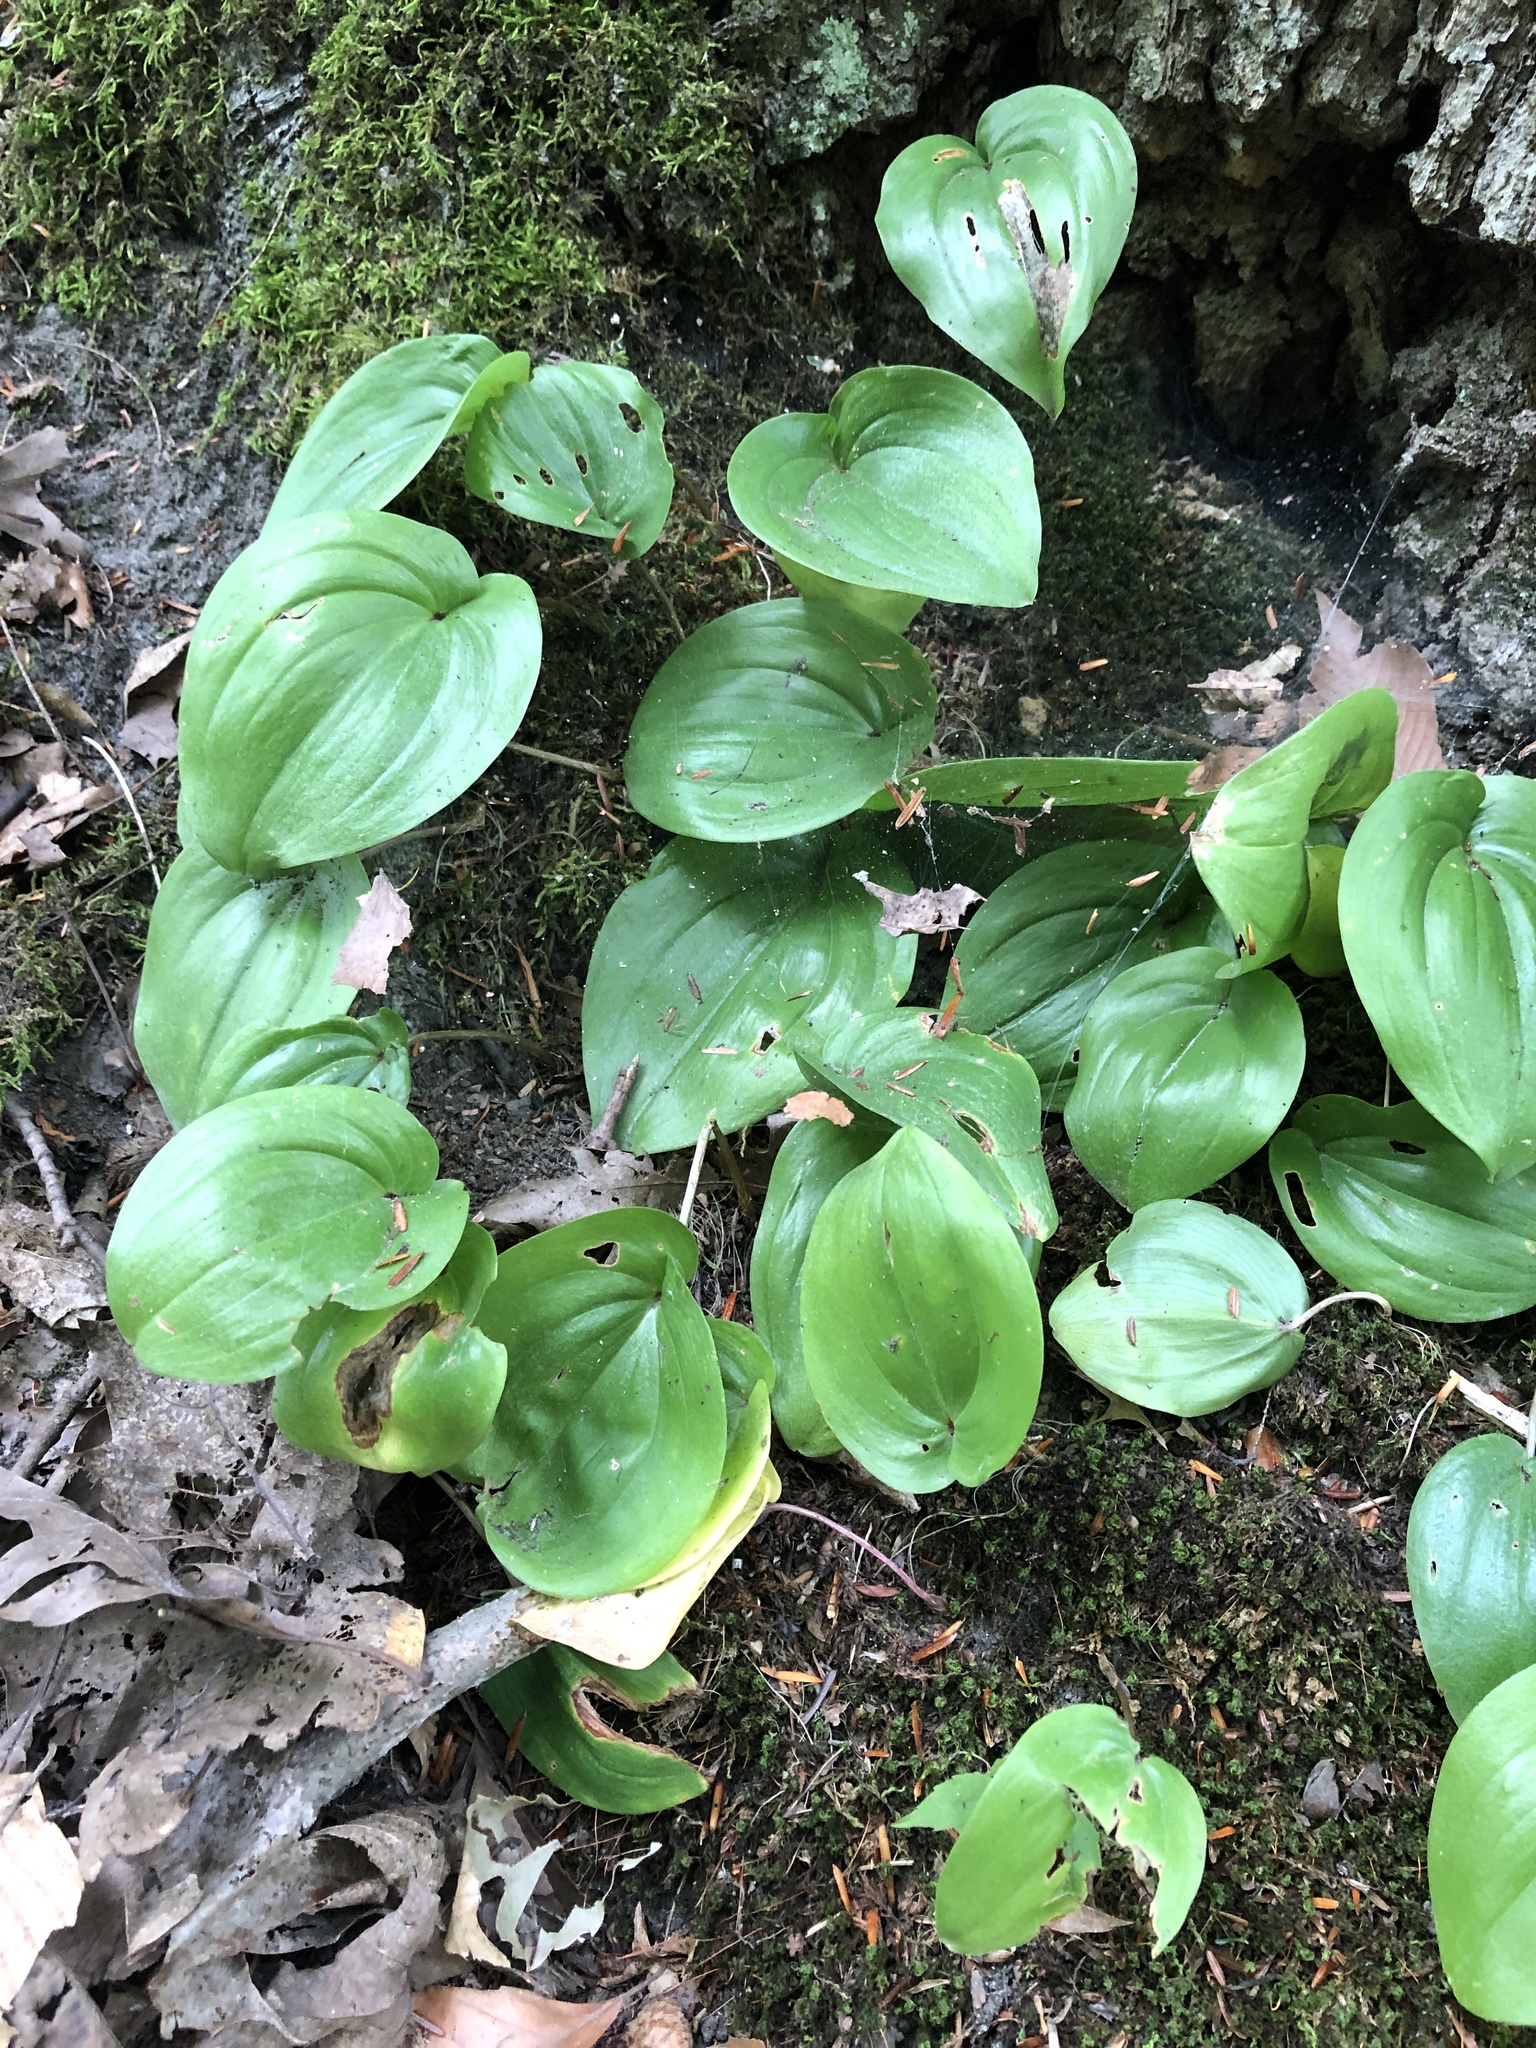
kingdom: Plantae
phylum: Tracheophyta
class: Liliopsida
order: Asparagales
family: Asparagaceae
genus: Maianthemum
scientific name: Maianthemum canadense
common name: False lily-of-the-valley
